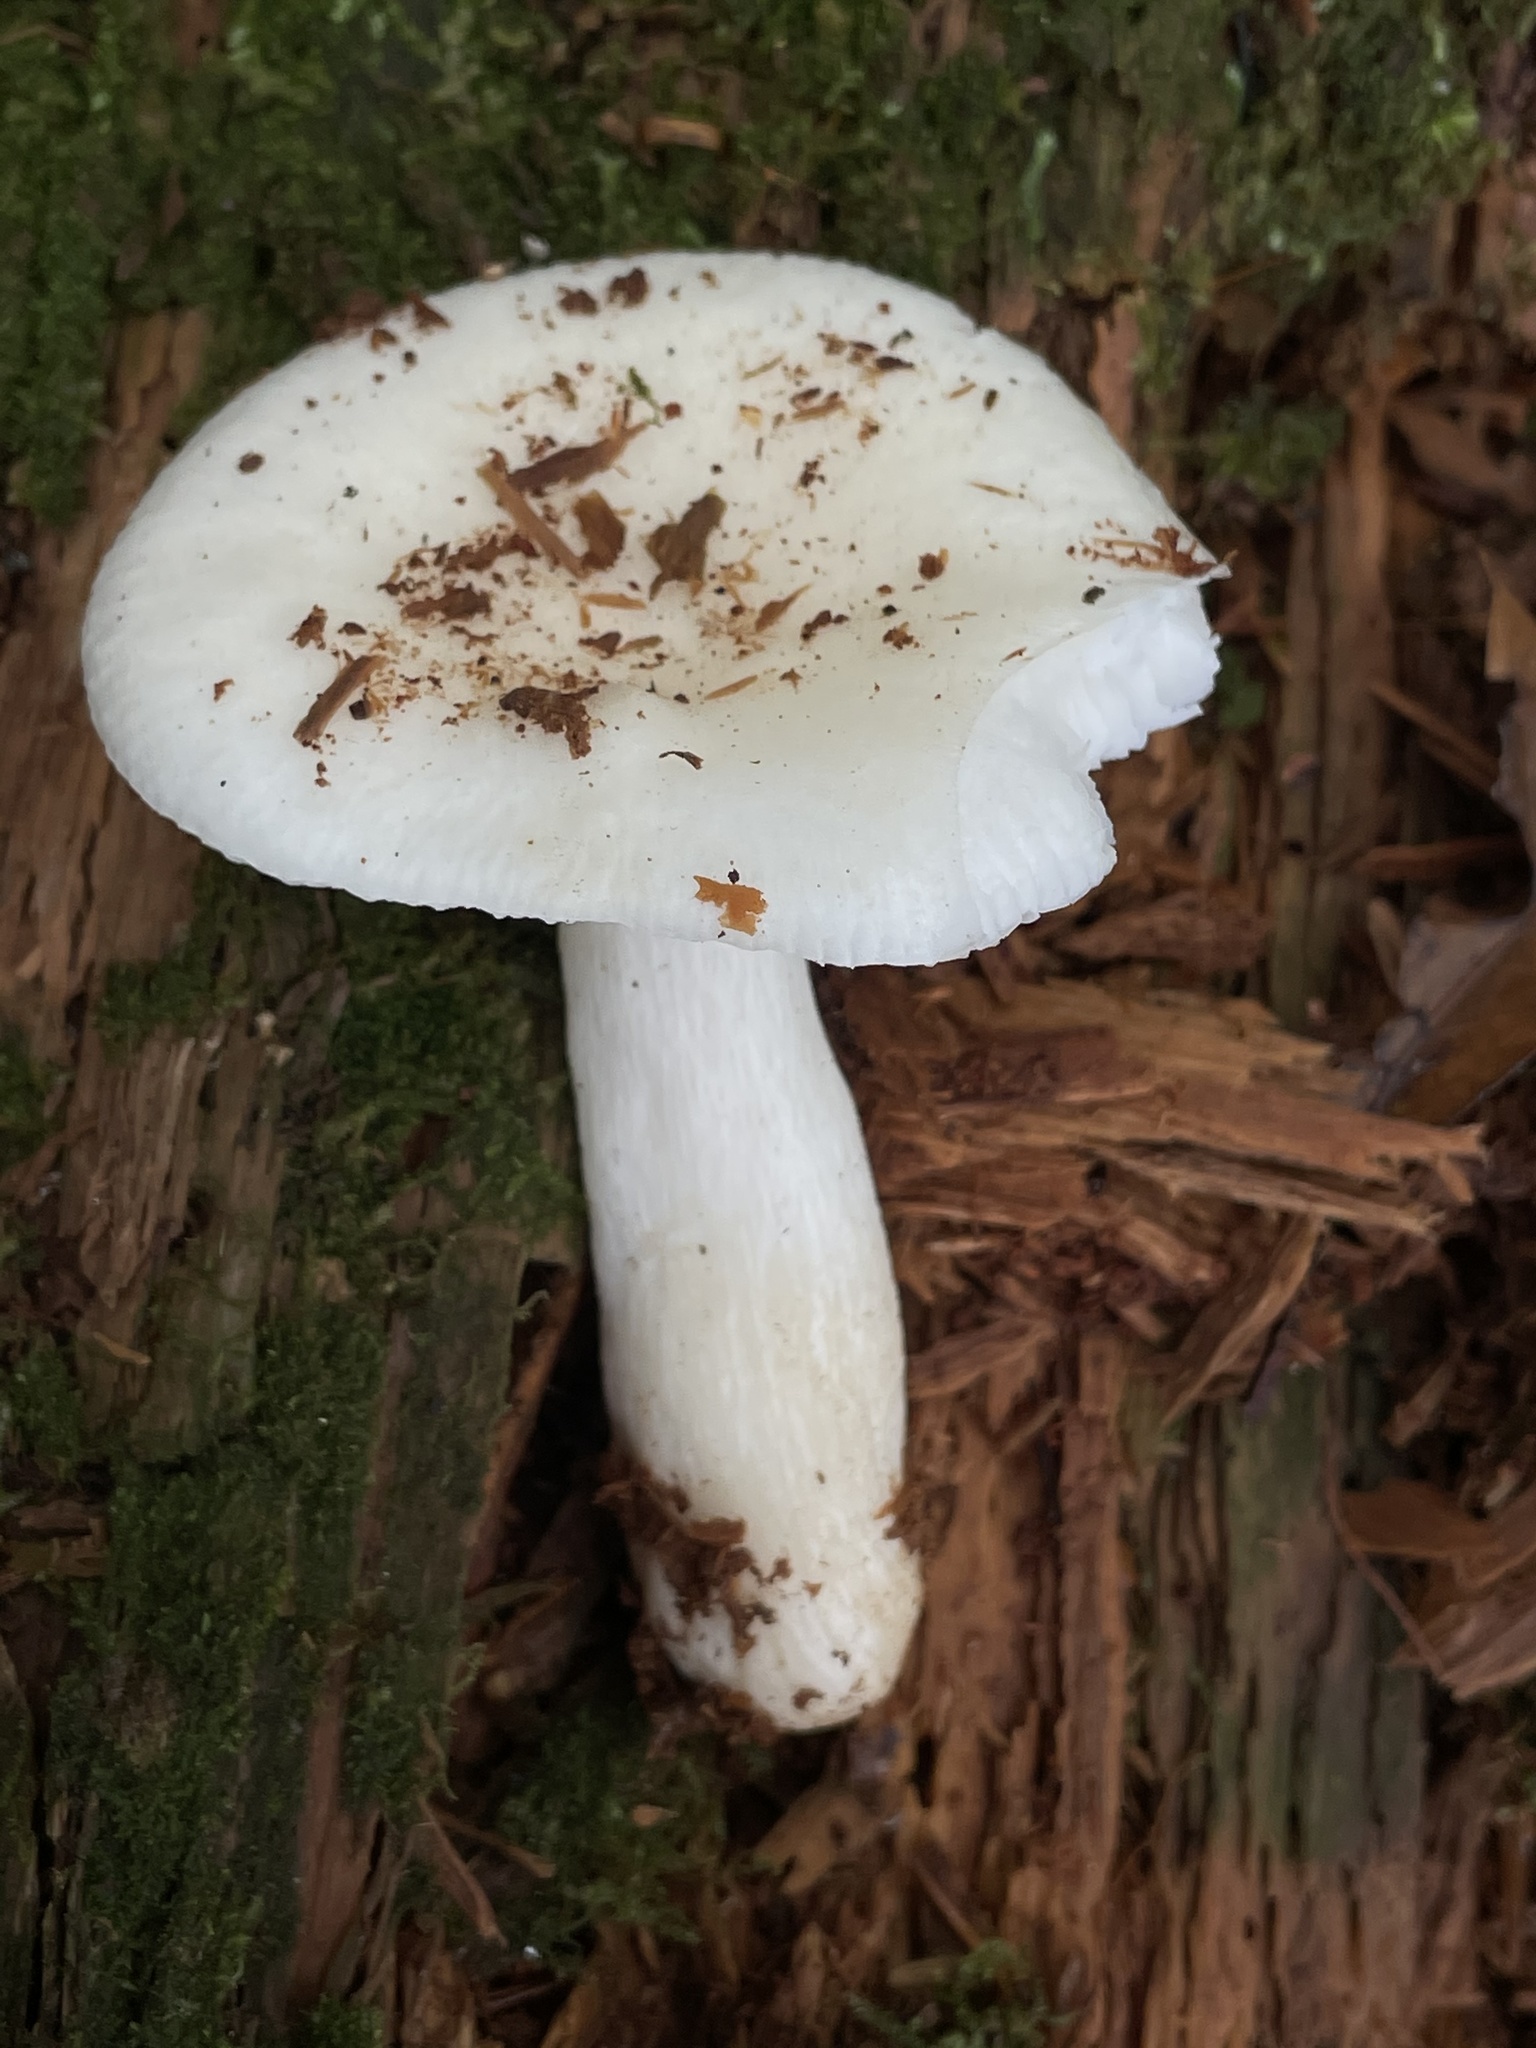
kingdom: Fungi
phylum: Basidiomycota
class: Agaricomycetes
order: Russulales
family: Russulaceae
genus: Russula
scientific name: Russula perlactea
